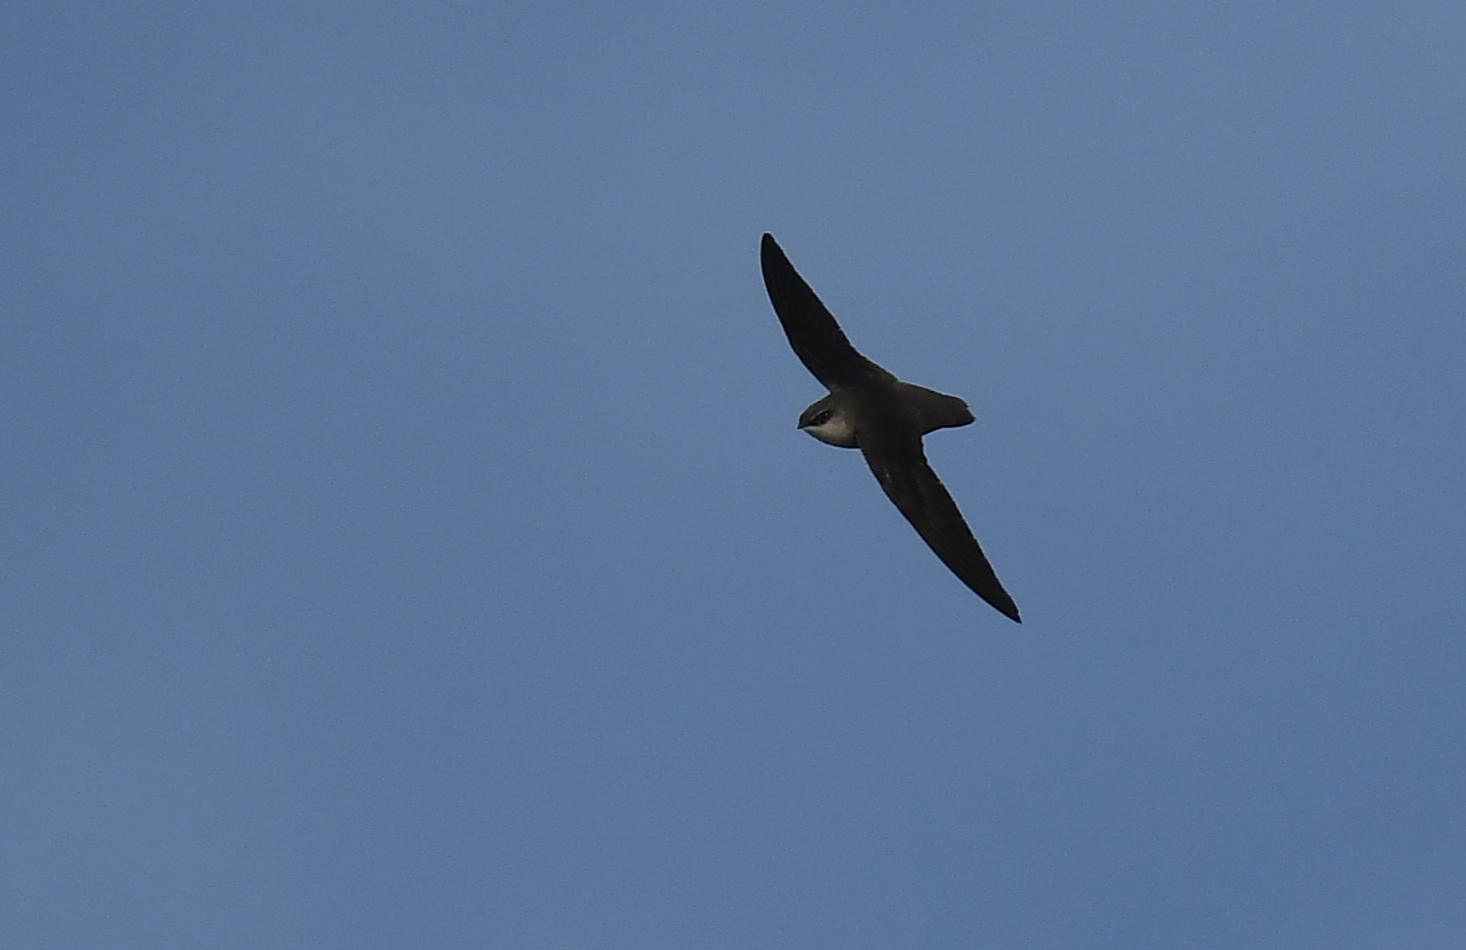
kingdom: Animalia
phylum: Chordata
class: Aves
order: Apodiformes
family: Apodidae
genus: Chaetura
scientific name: Chaetura pelagica
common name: Chimney swift
